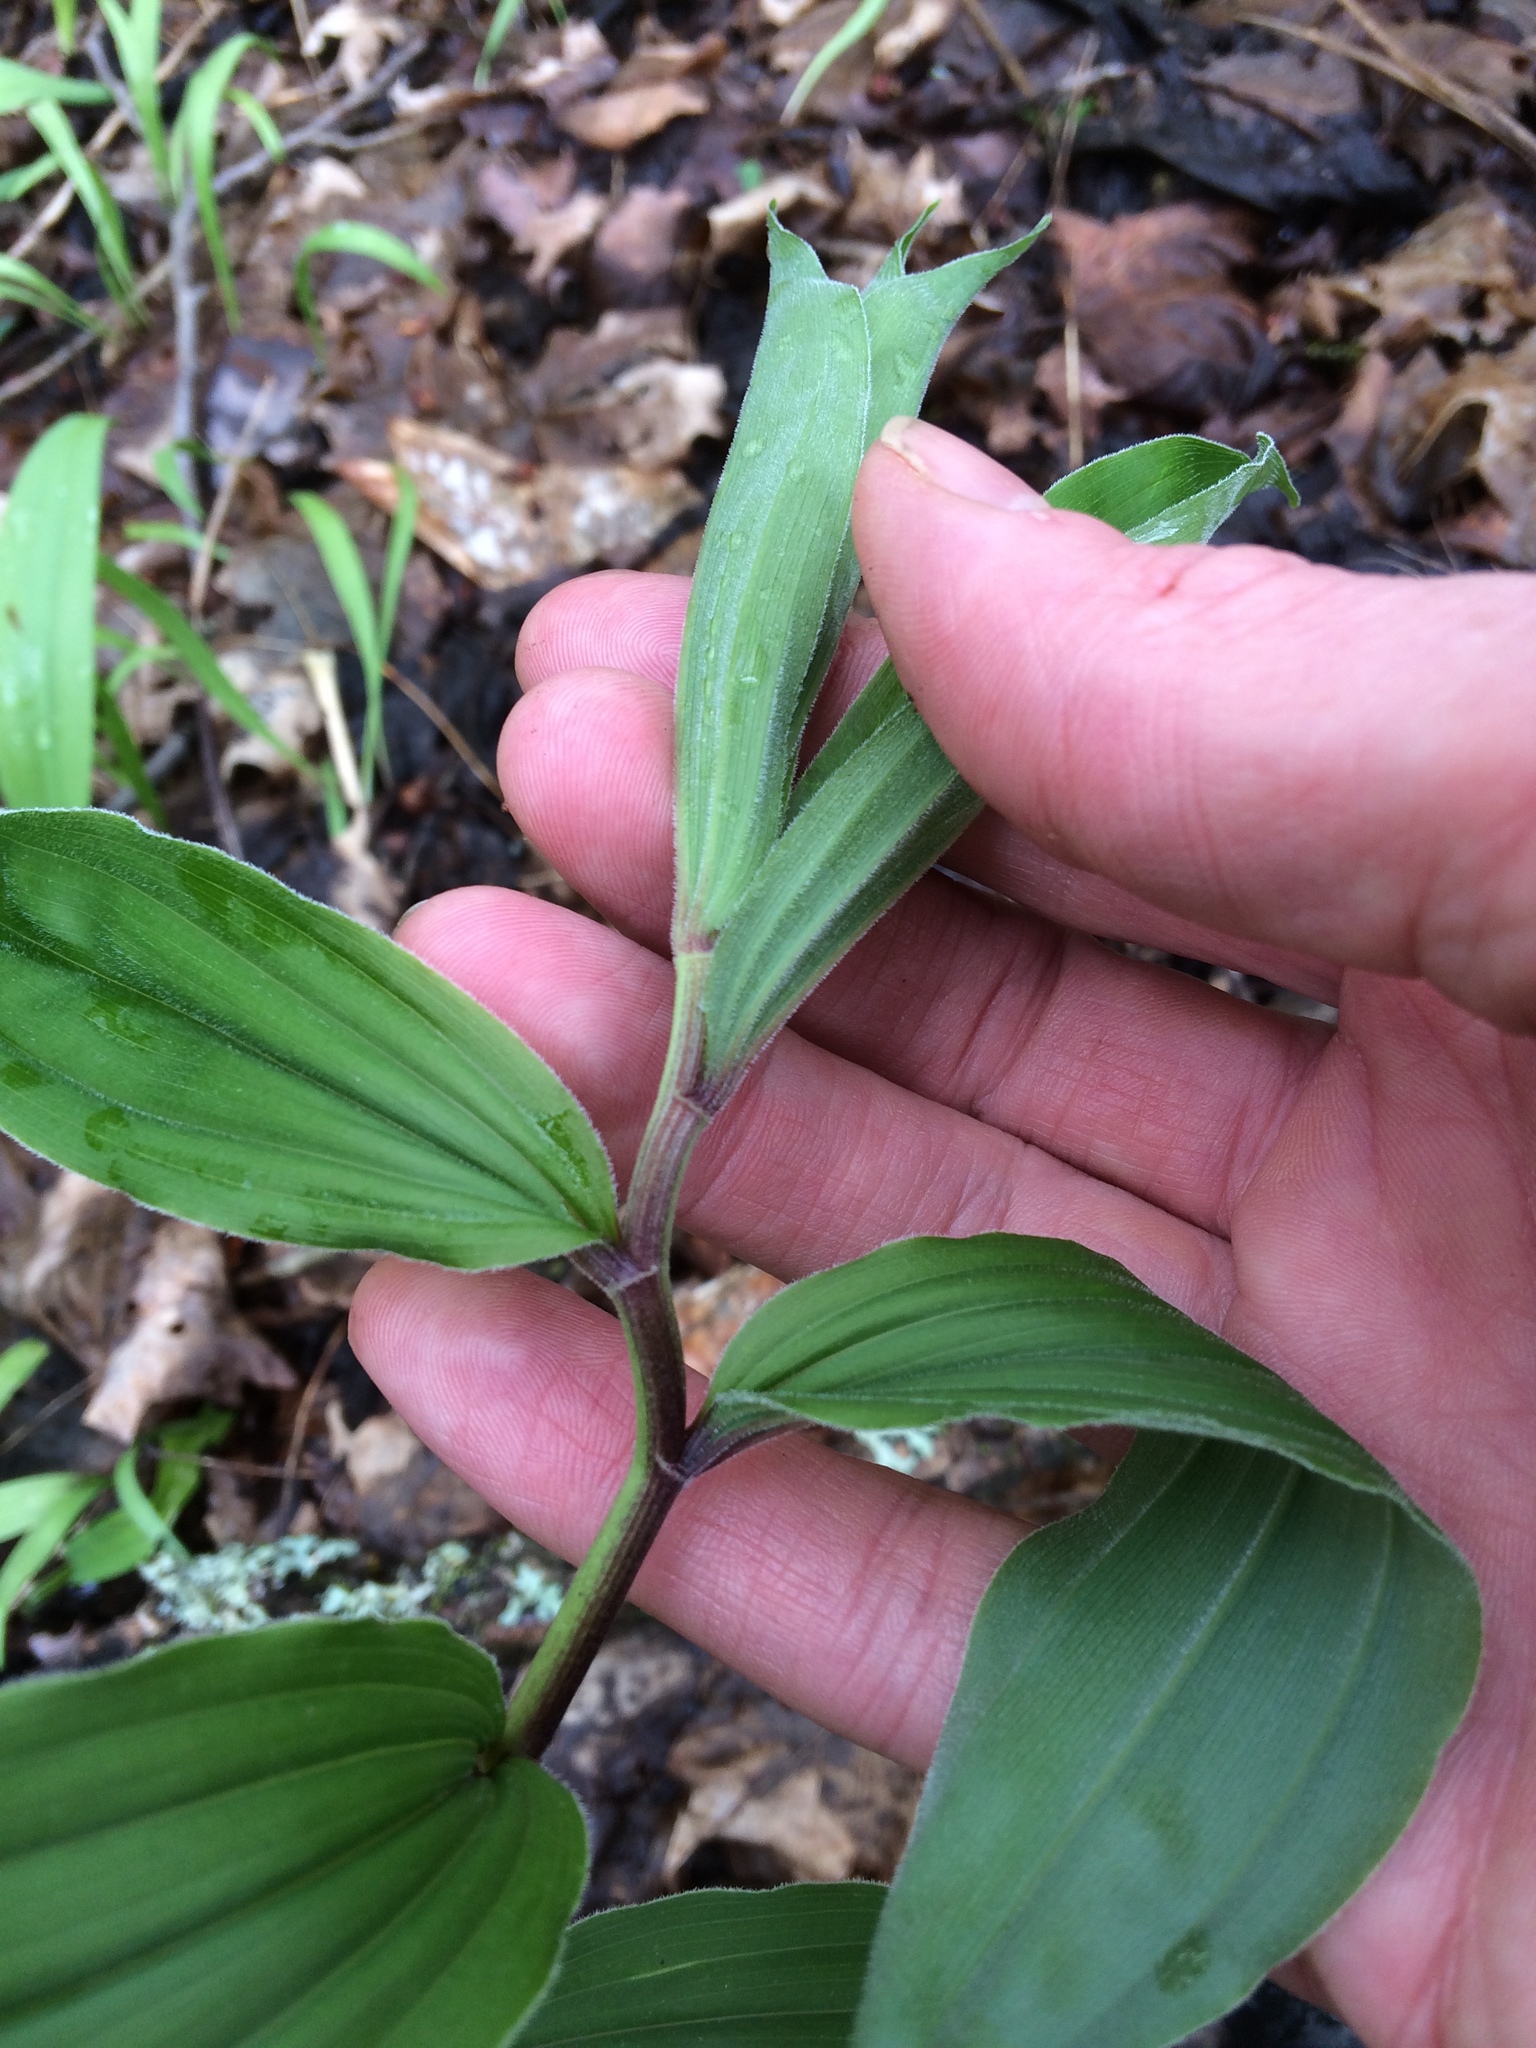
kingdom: Plantae
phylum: Tracheophyta
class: Liliopsida
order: Asparagales
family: Asparagaceae
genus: Maianthemum
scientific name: Maianthemum racemosum
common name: False spikenard
